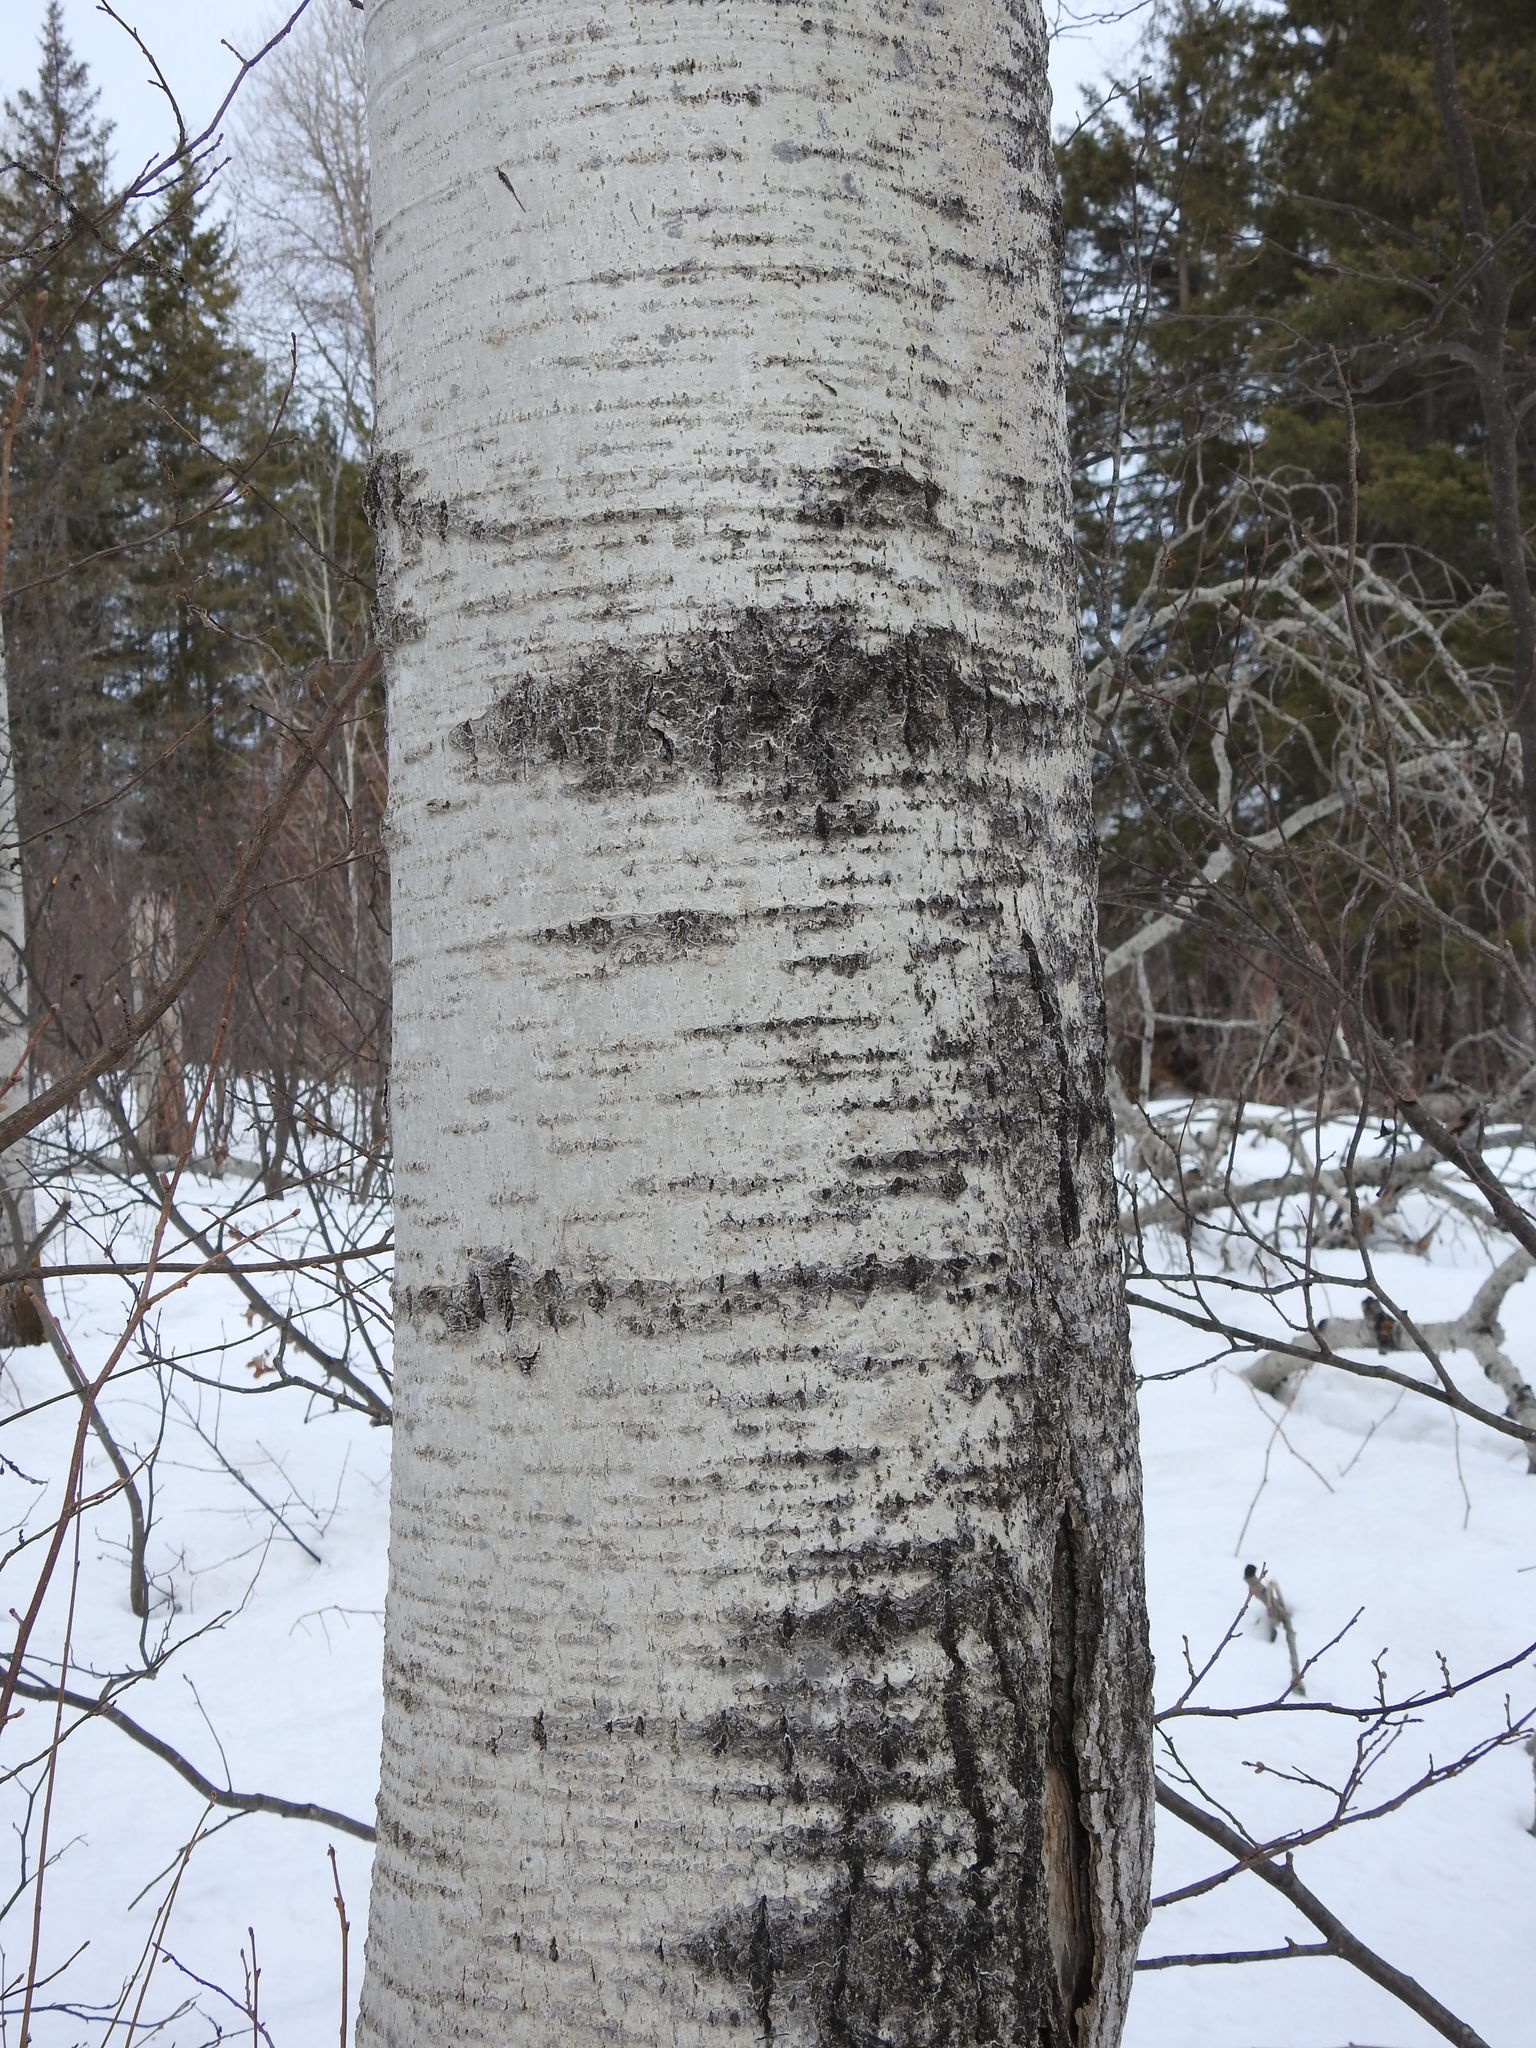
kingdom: Plantae
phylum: Tracheophyta
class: Magnoliopsida
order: Malpighiales
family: Salicaceae
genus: Populus
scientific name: Populus tremuloides
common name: Quaking aspen
